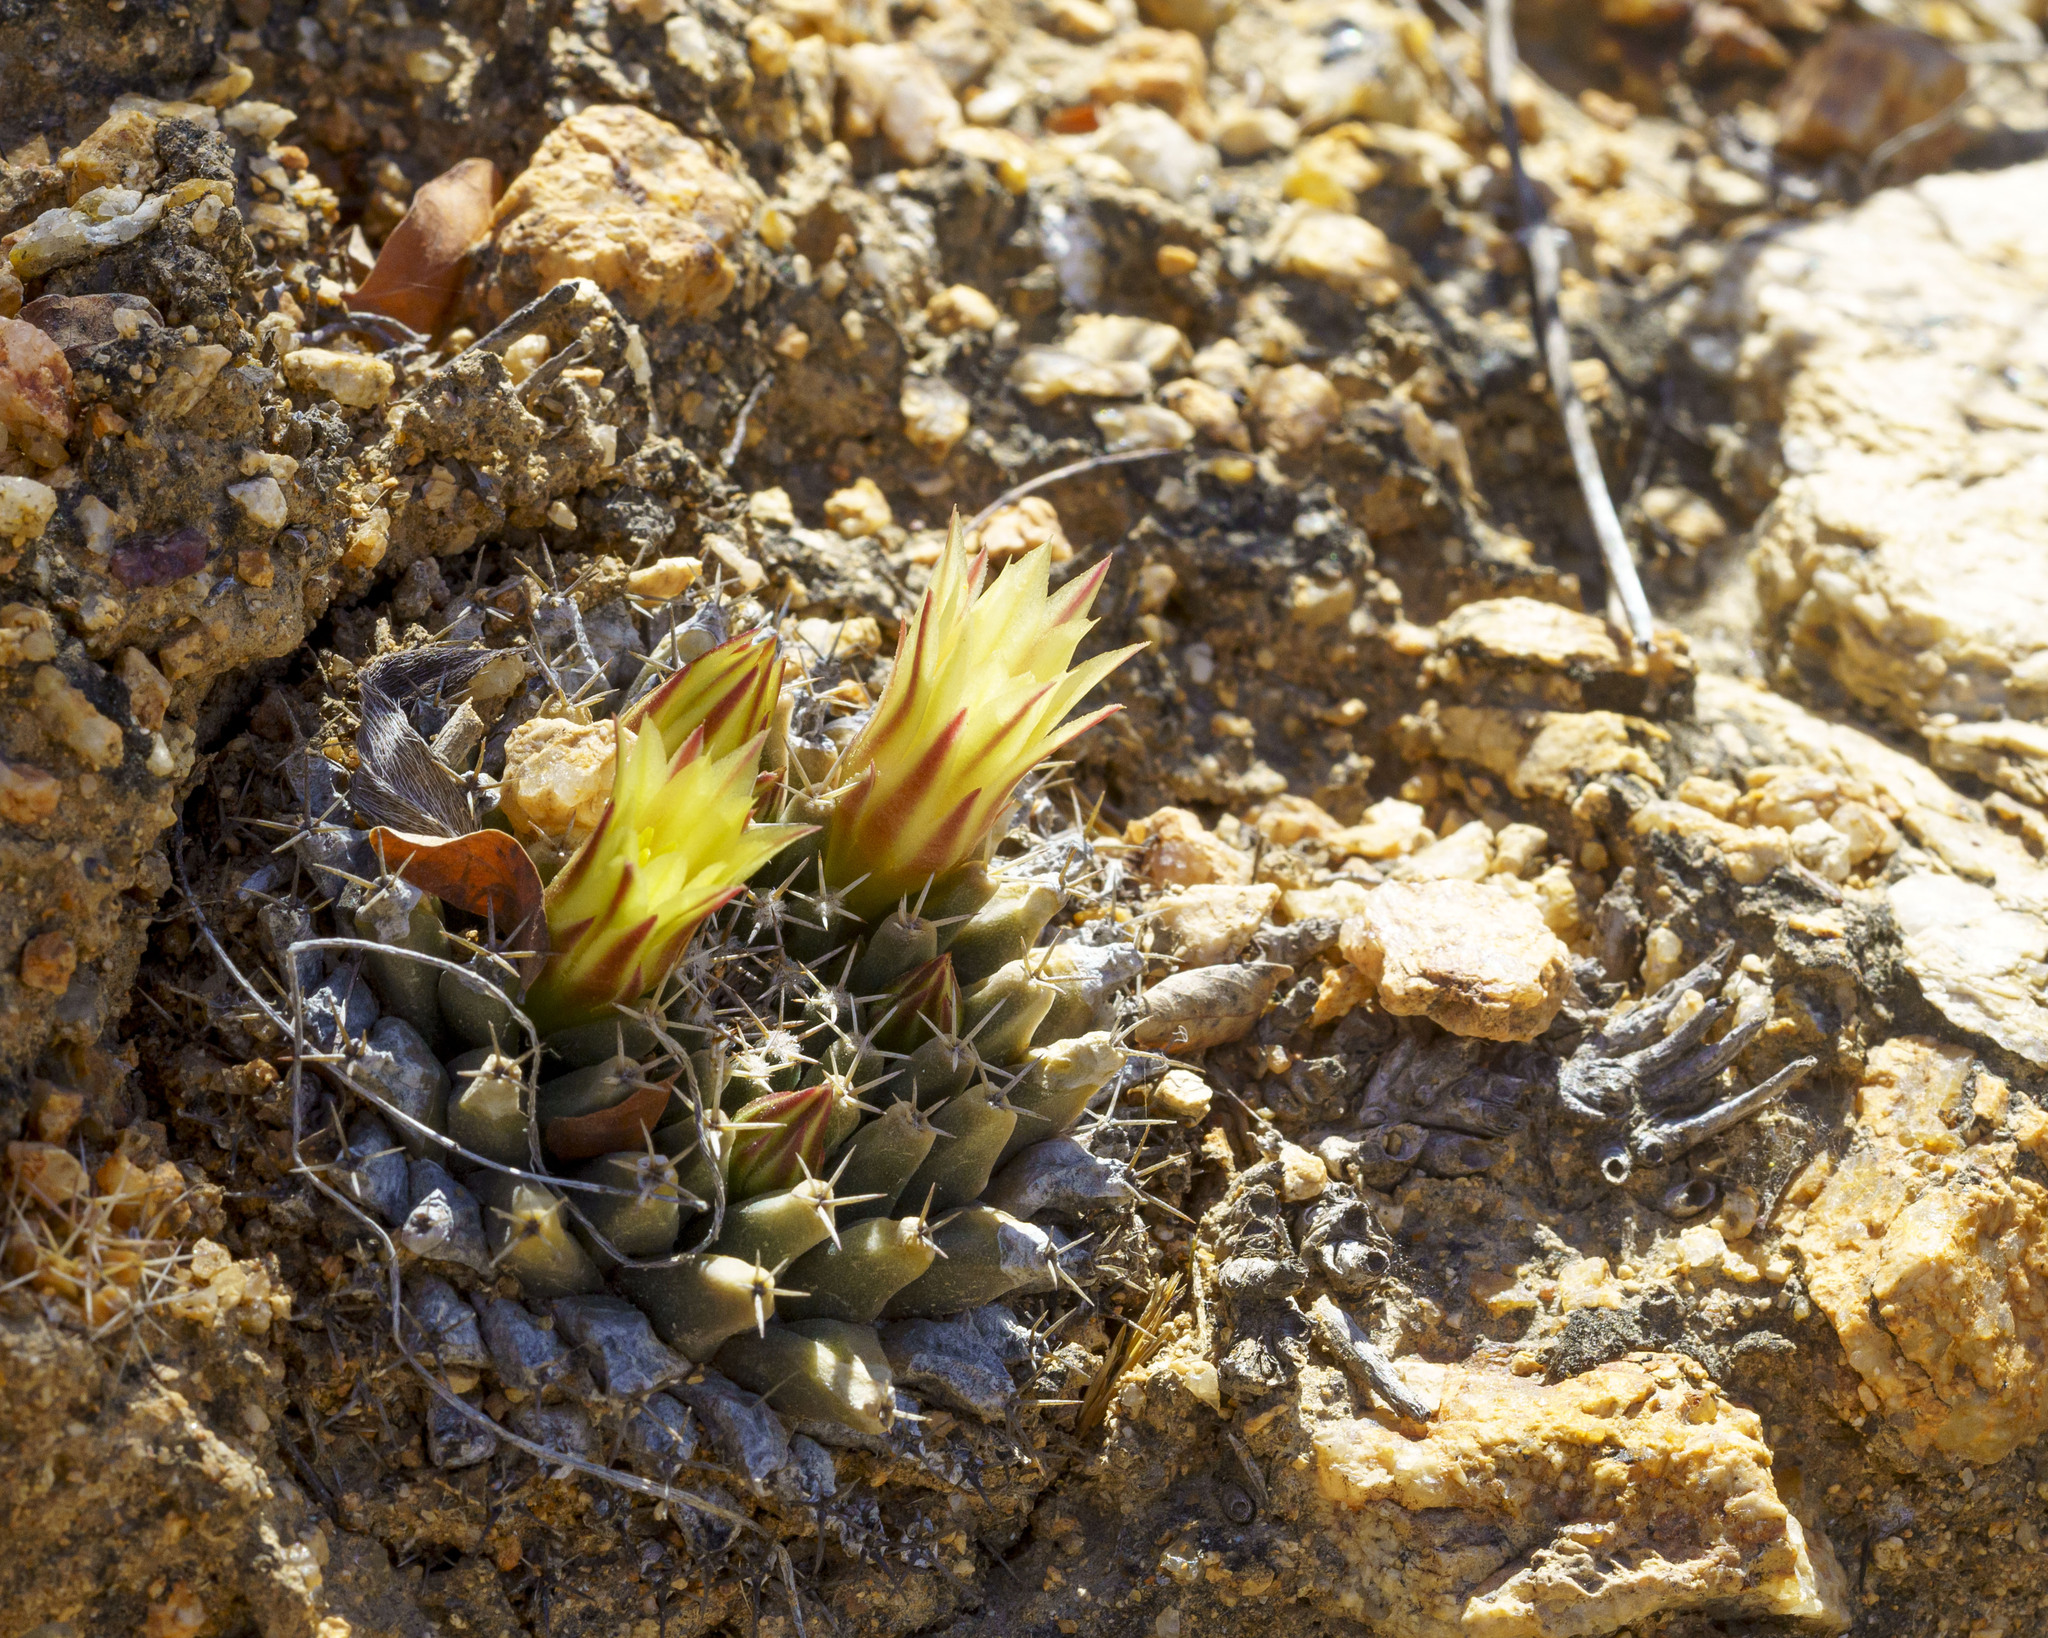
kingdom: Plantae
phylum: Tracheophyta
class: Magnoliopsida
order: Caryophyllales
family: Cactaceae
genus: Mammillaria
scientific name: Mammillaria peninsularis
